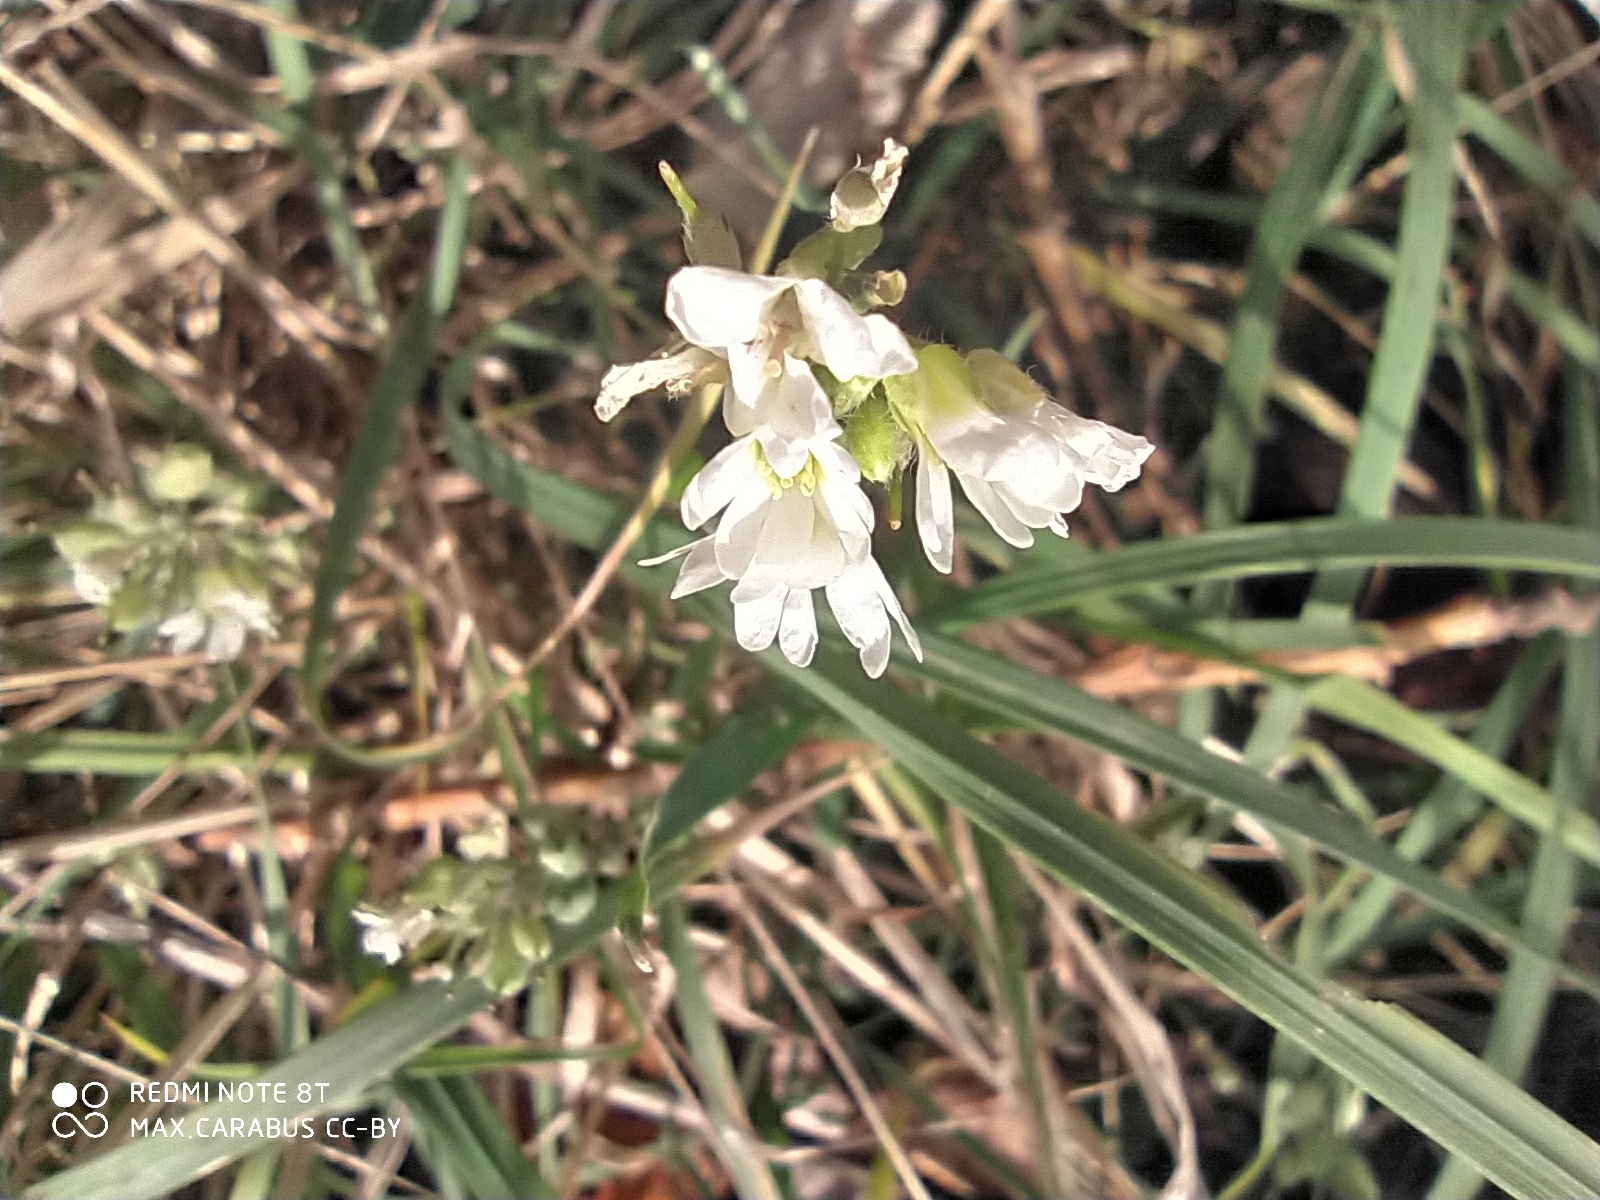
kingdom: Plantae
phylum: Tracheophyta
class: Magnoliopsida
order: Brassicales
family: Brassicaceae
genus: Berteroa
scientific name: Berteroa incana
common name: Hoary alison
